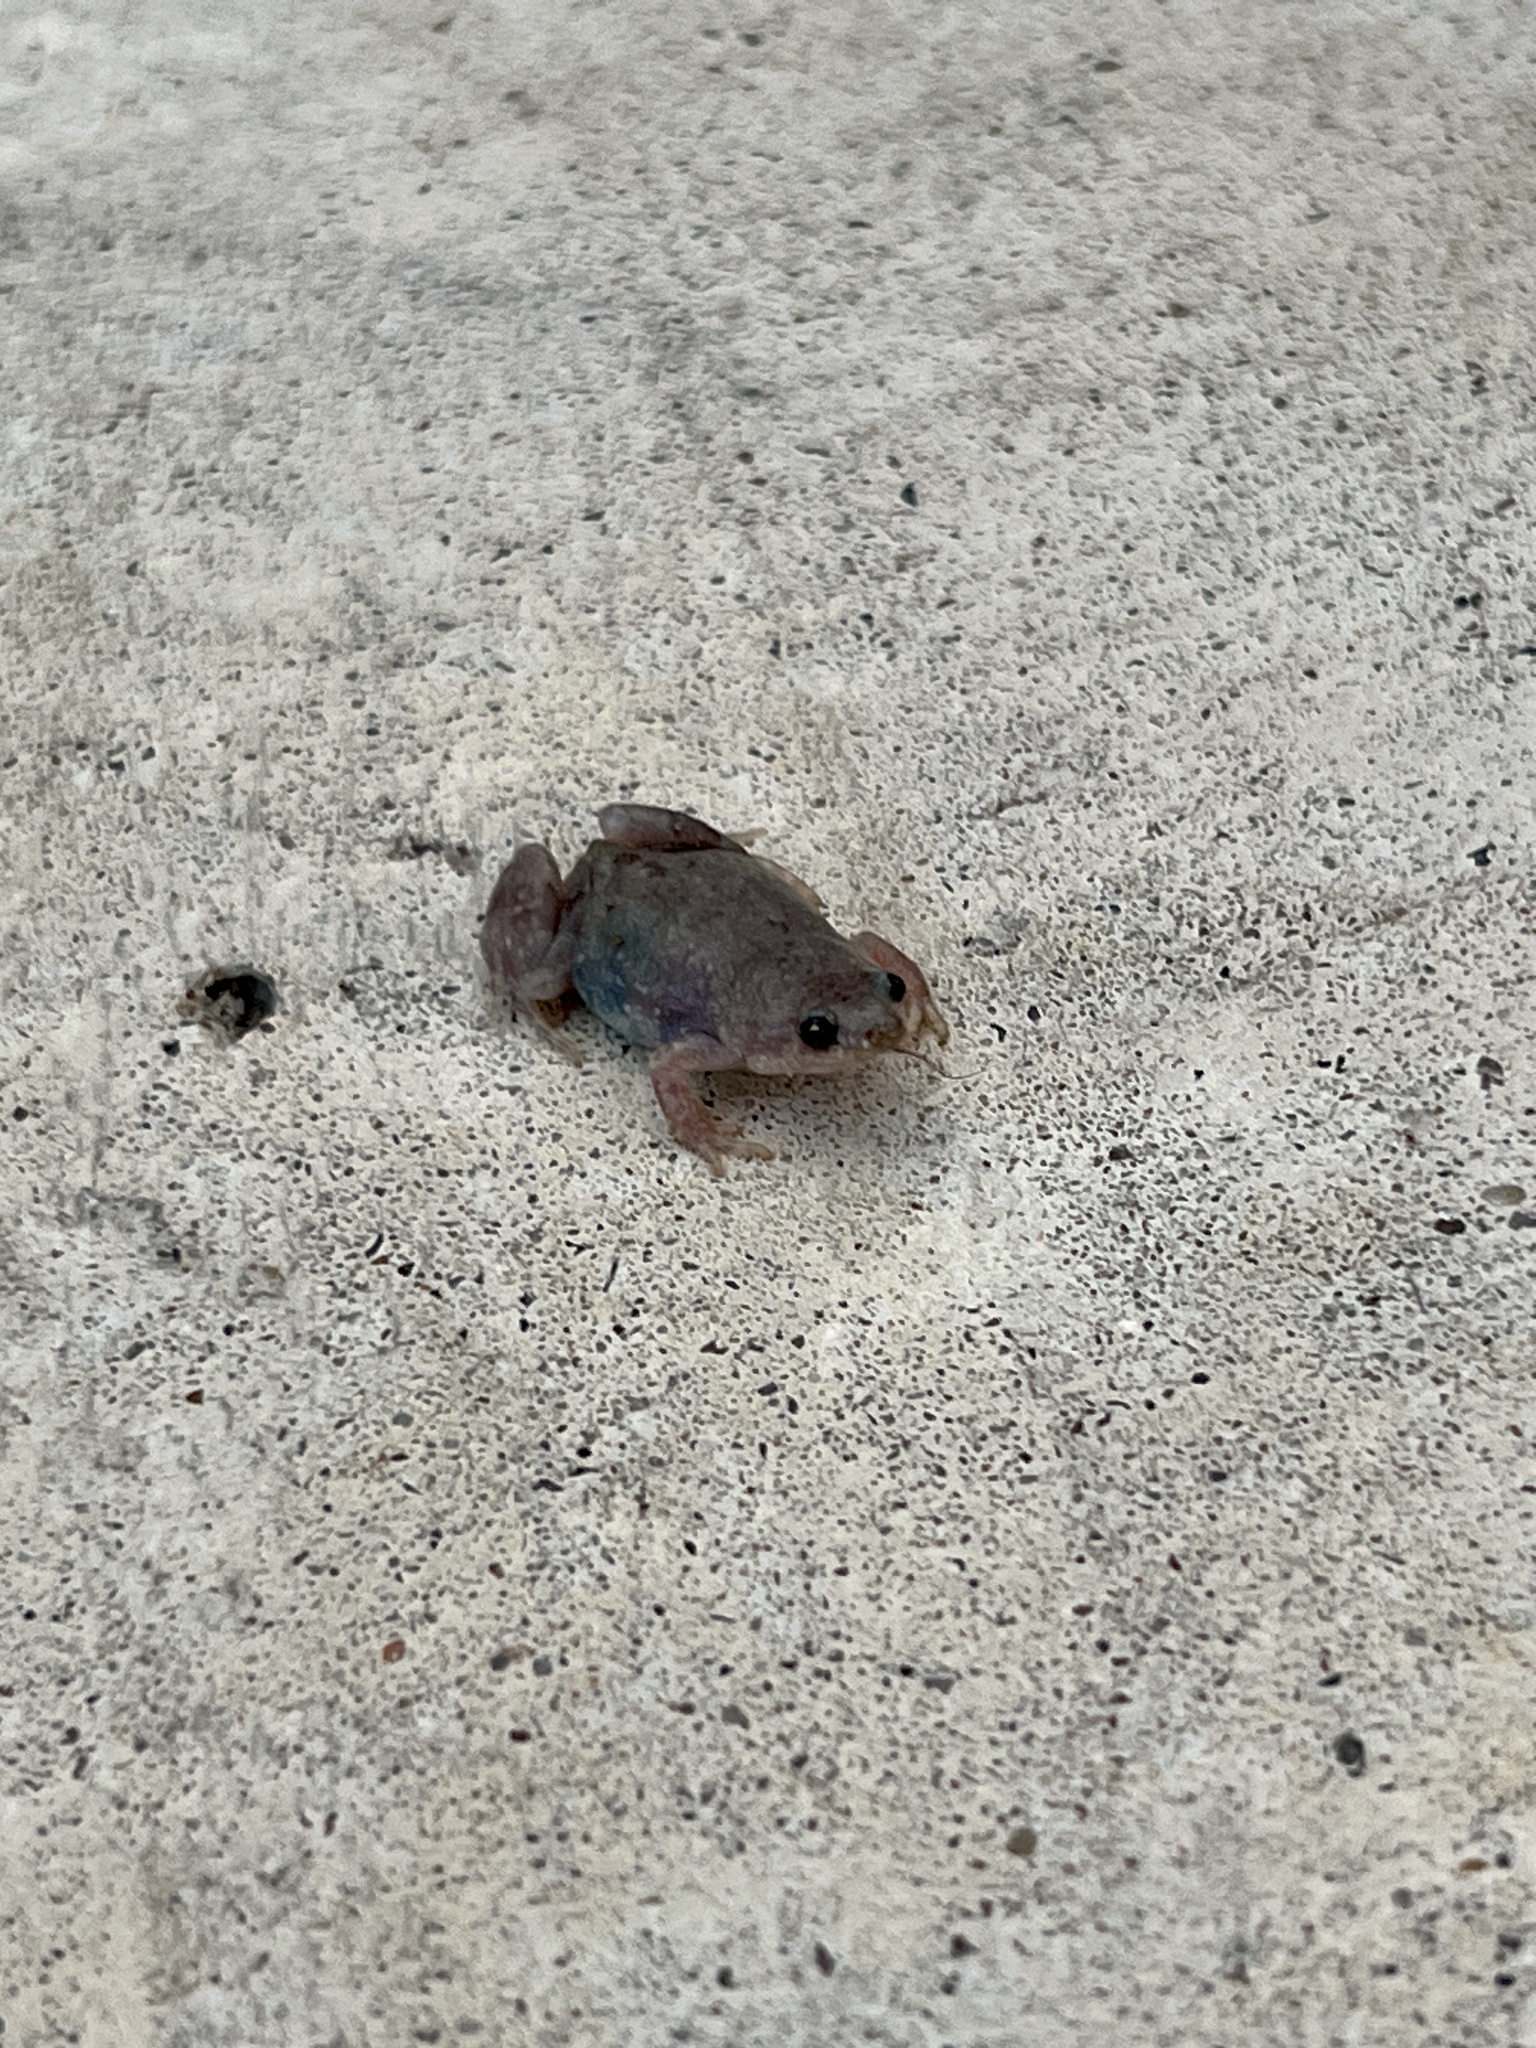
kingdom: Animalia
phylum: Chordata
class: Amphibia
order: Anura
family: Microhylidae
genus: Gastrophryne
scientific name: Gastrophryne olivacea
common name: Great plains narrow-mouthed toad
